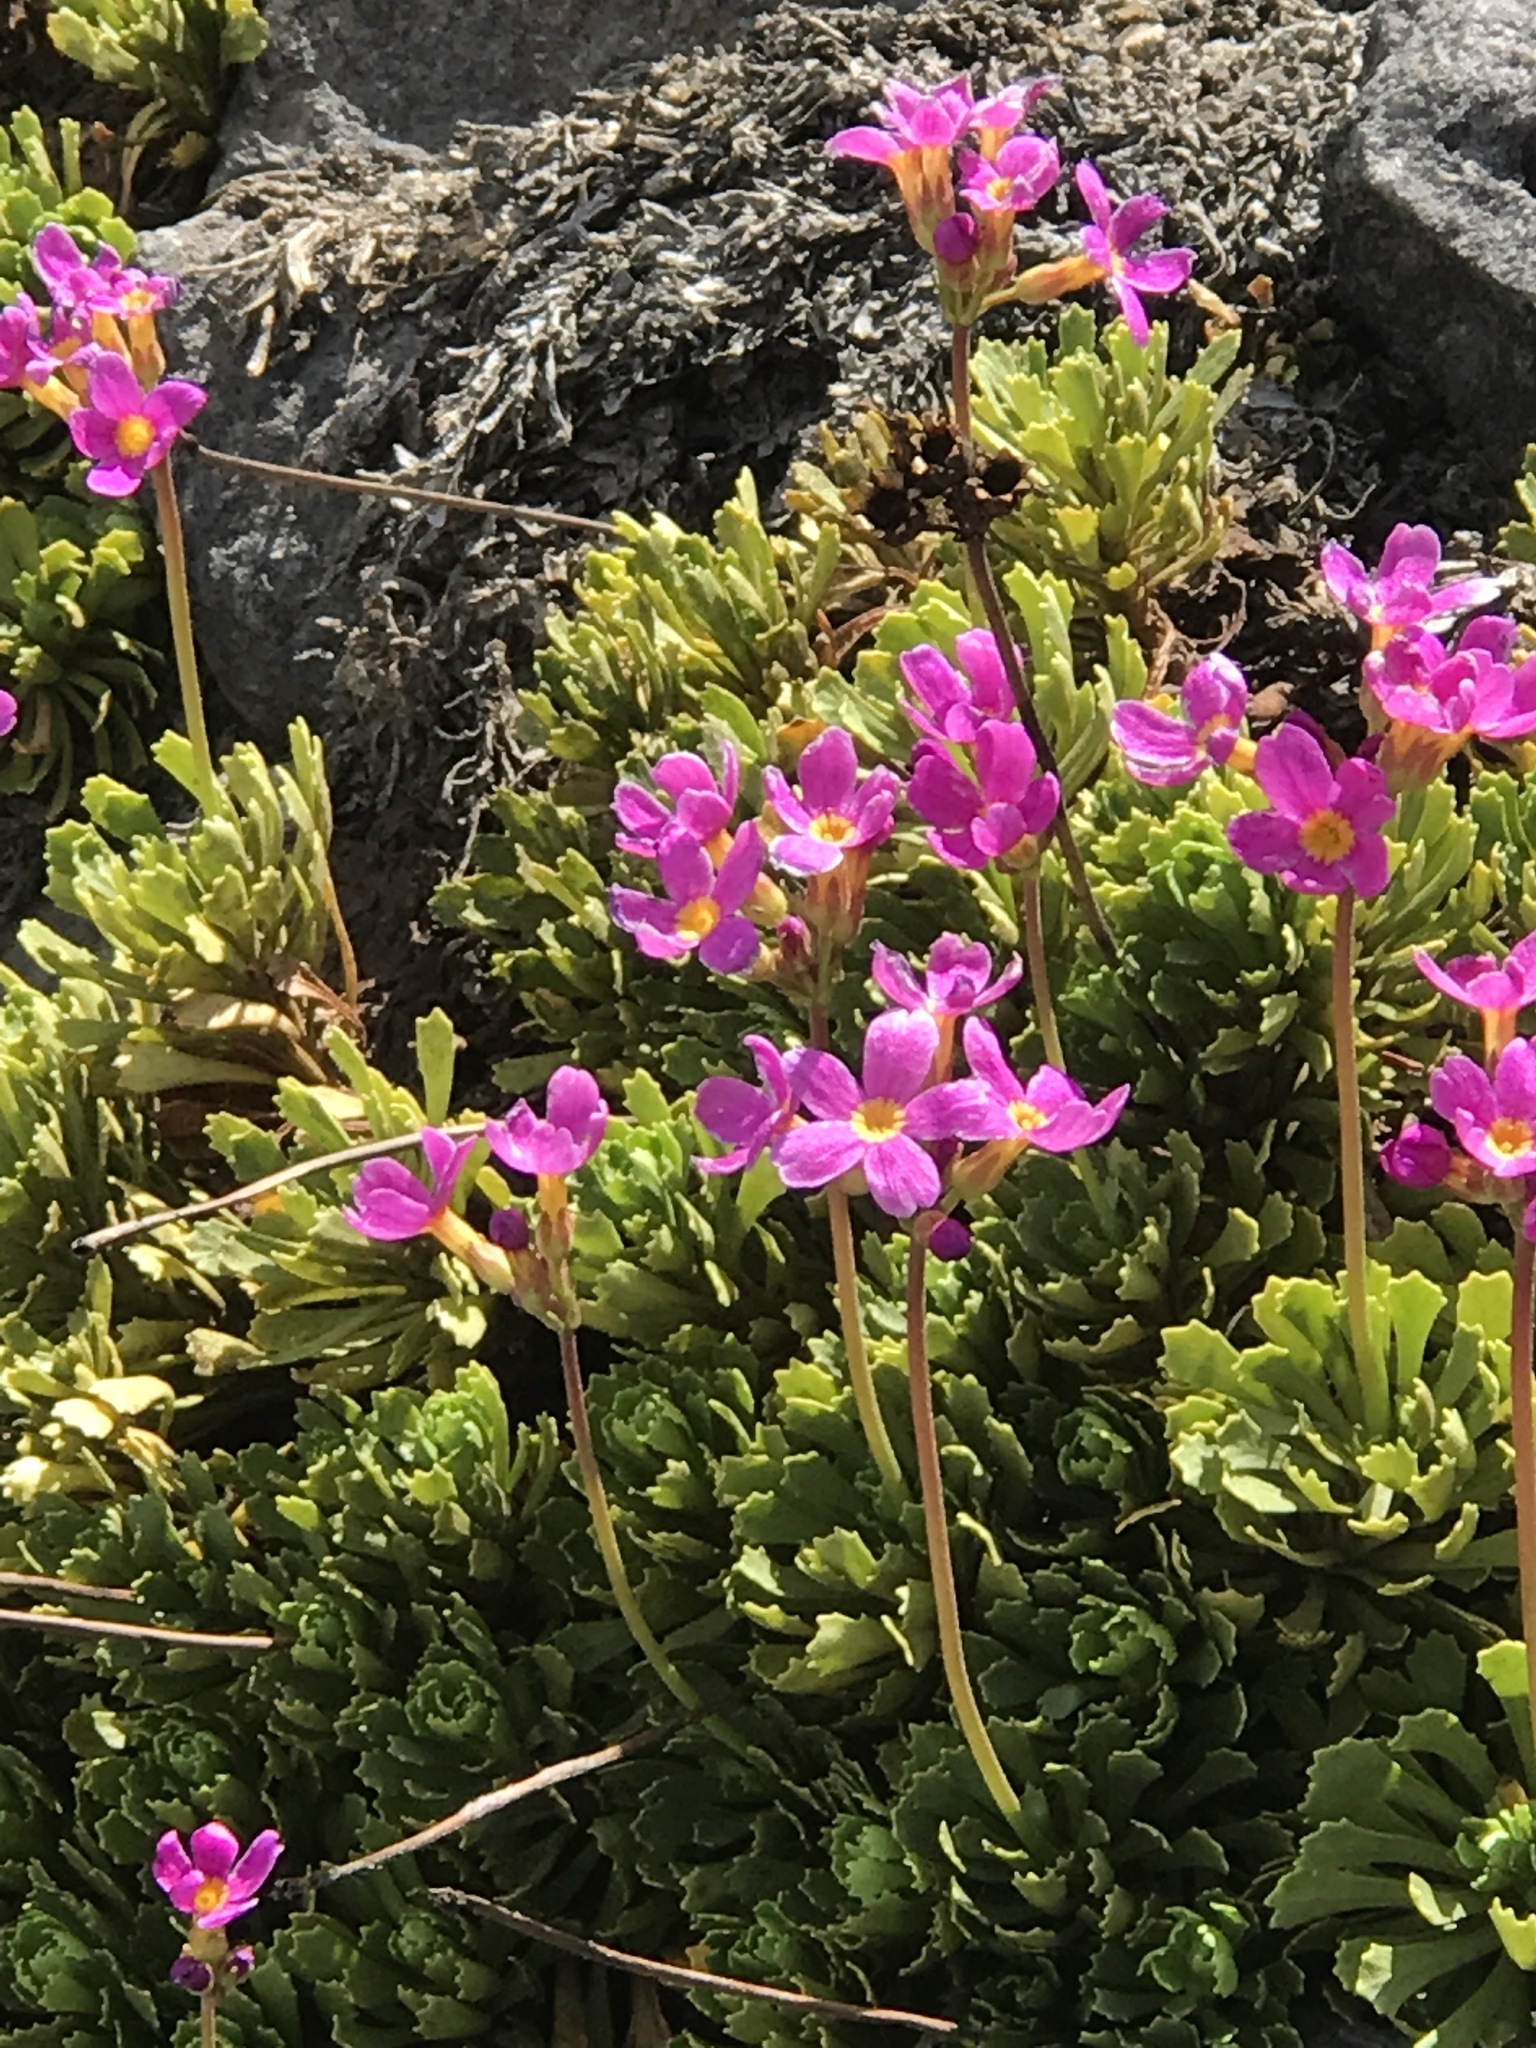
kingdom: Plantae
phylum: Tracheophyta
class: Magnoliopsida
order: Ericales
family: Primulaceae
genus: Primula
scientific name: Primula suffrutescens
